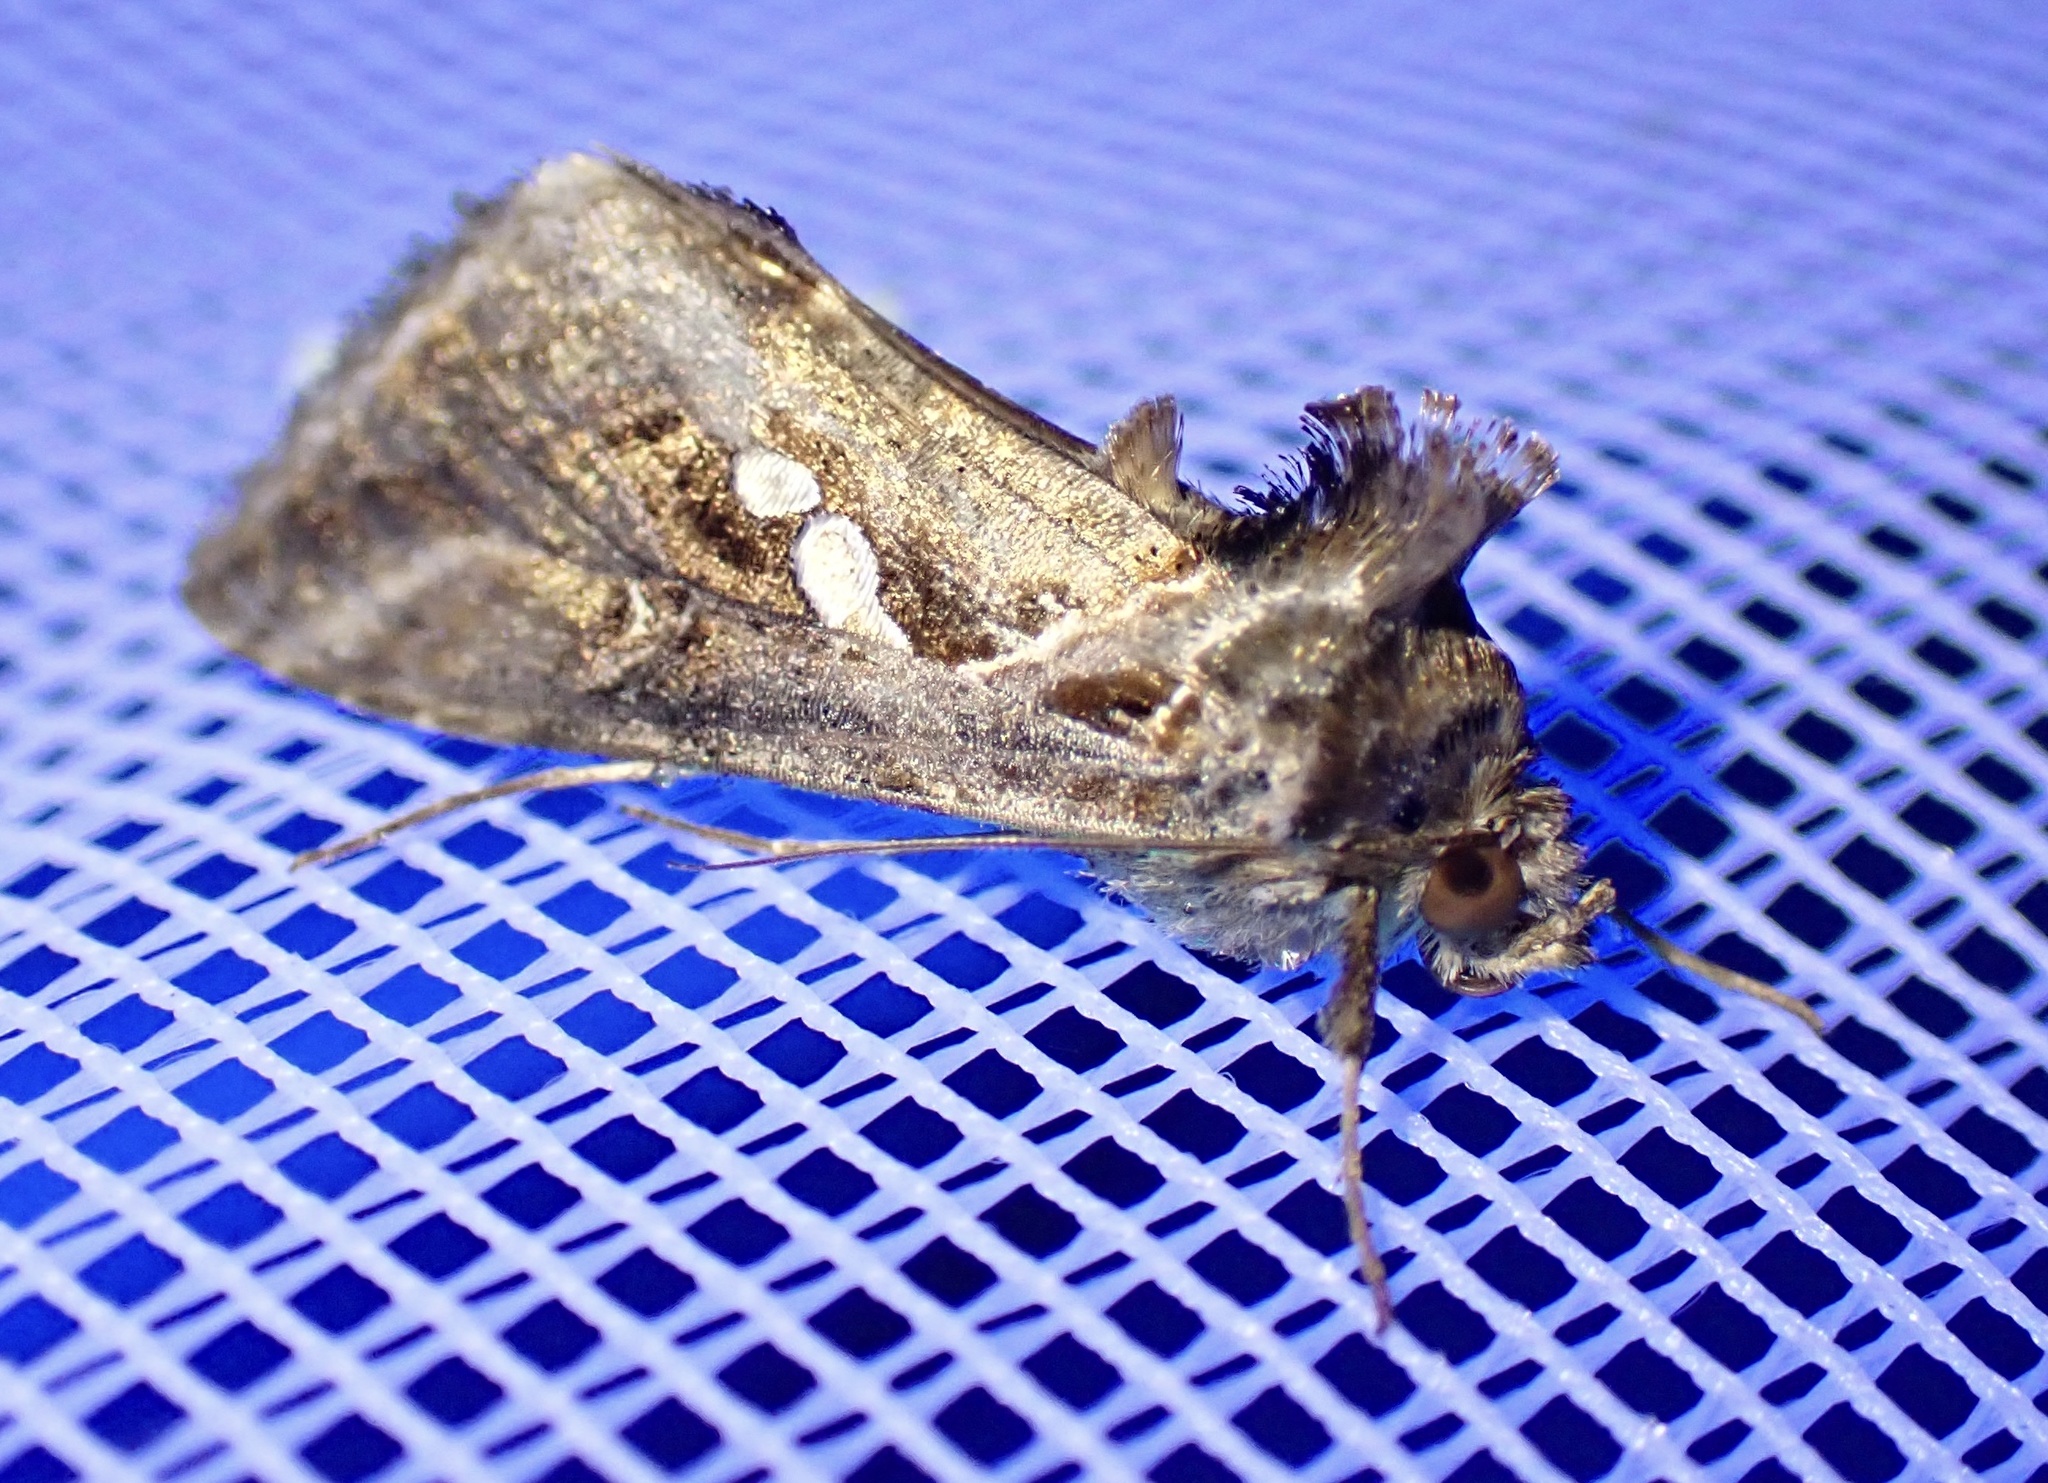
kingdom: Animalia
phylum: Arthropoda
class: Insecta
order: Lepidoptera
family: Noctuidae
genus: Chrysodeixis
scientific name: Chrysodeixis chalcites
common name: Golden twin-spot
